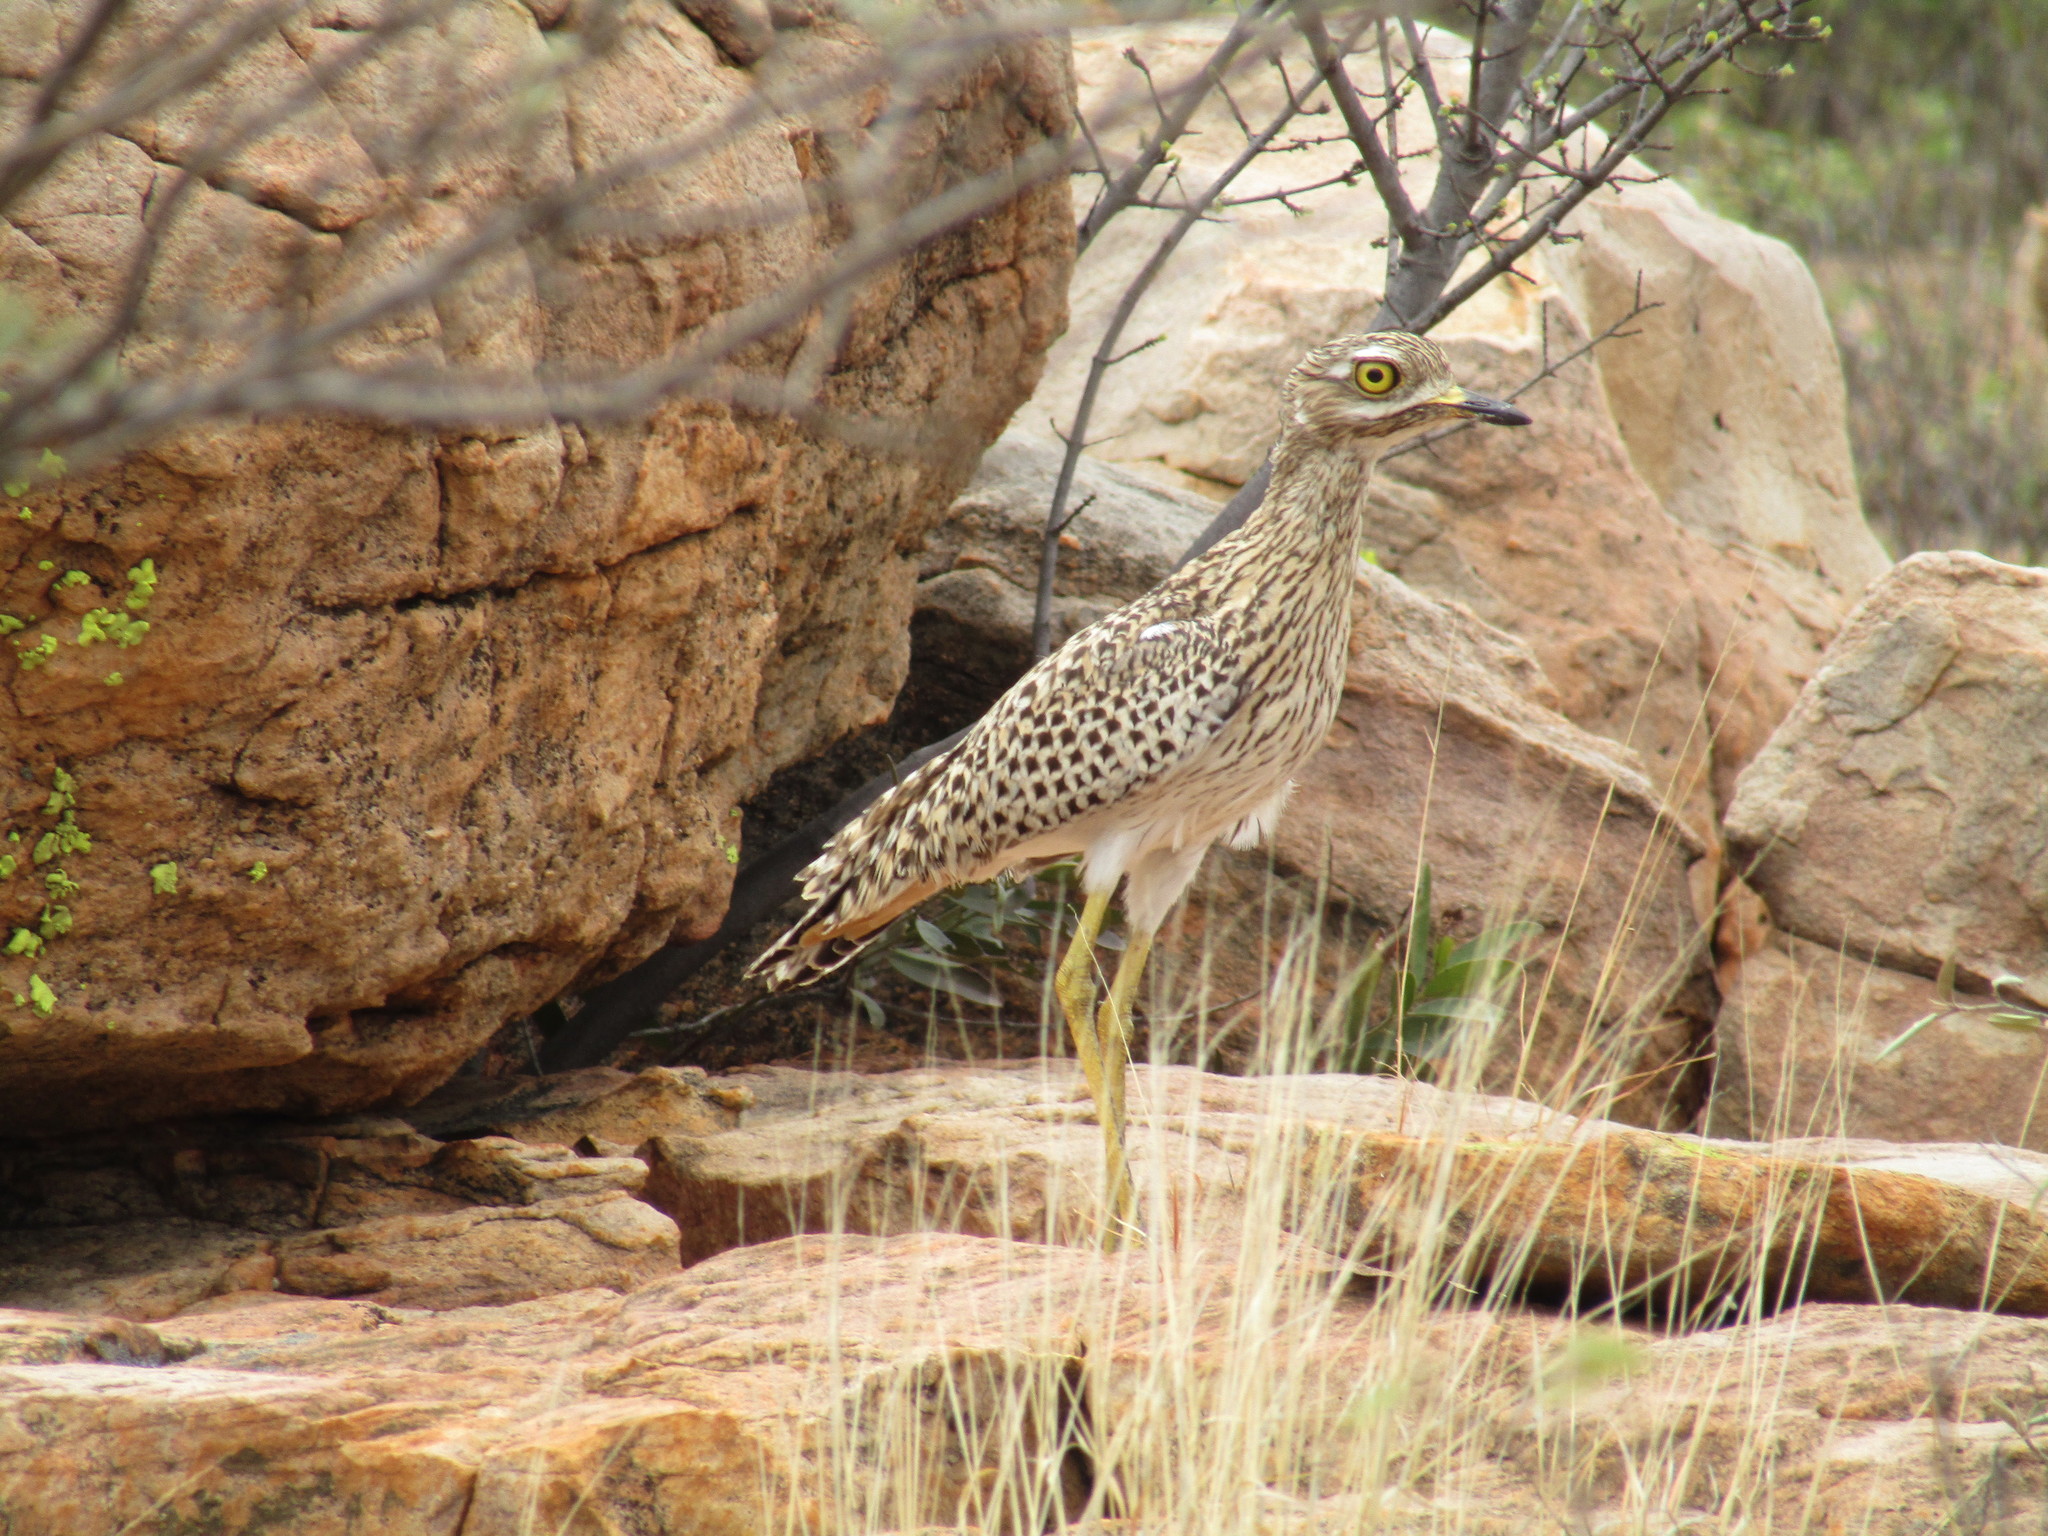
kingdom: Animalia
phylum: Chordata
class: Aves
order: Charadriiformes
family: Burhinidae
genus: Burhinus
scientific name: Burhinus capensis
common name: Spotted thick-knee
